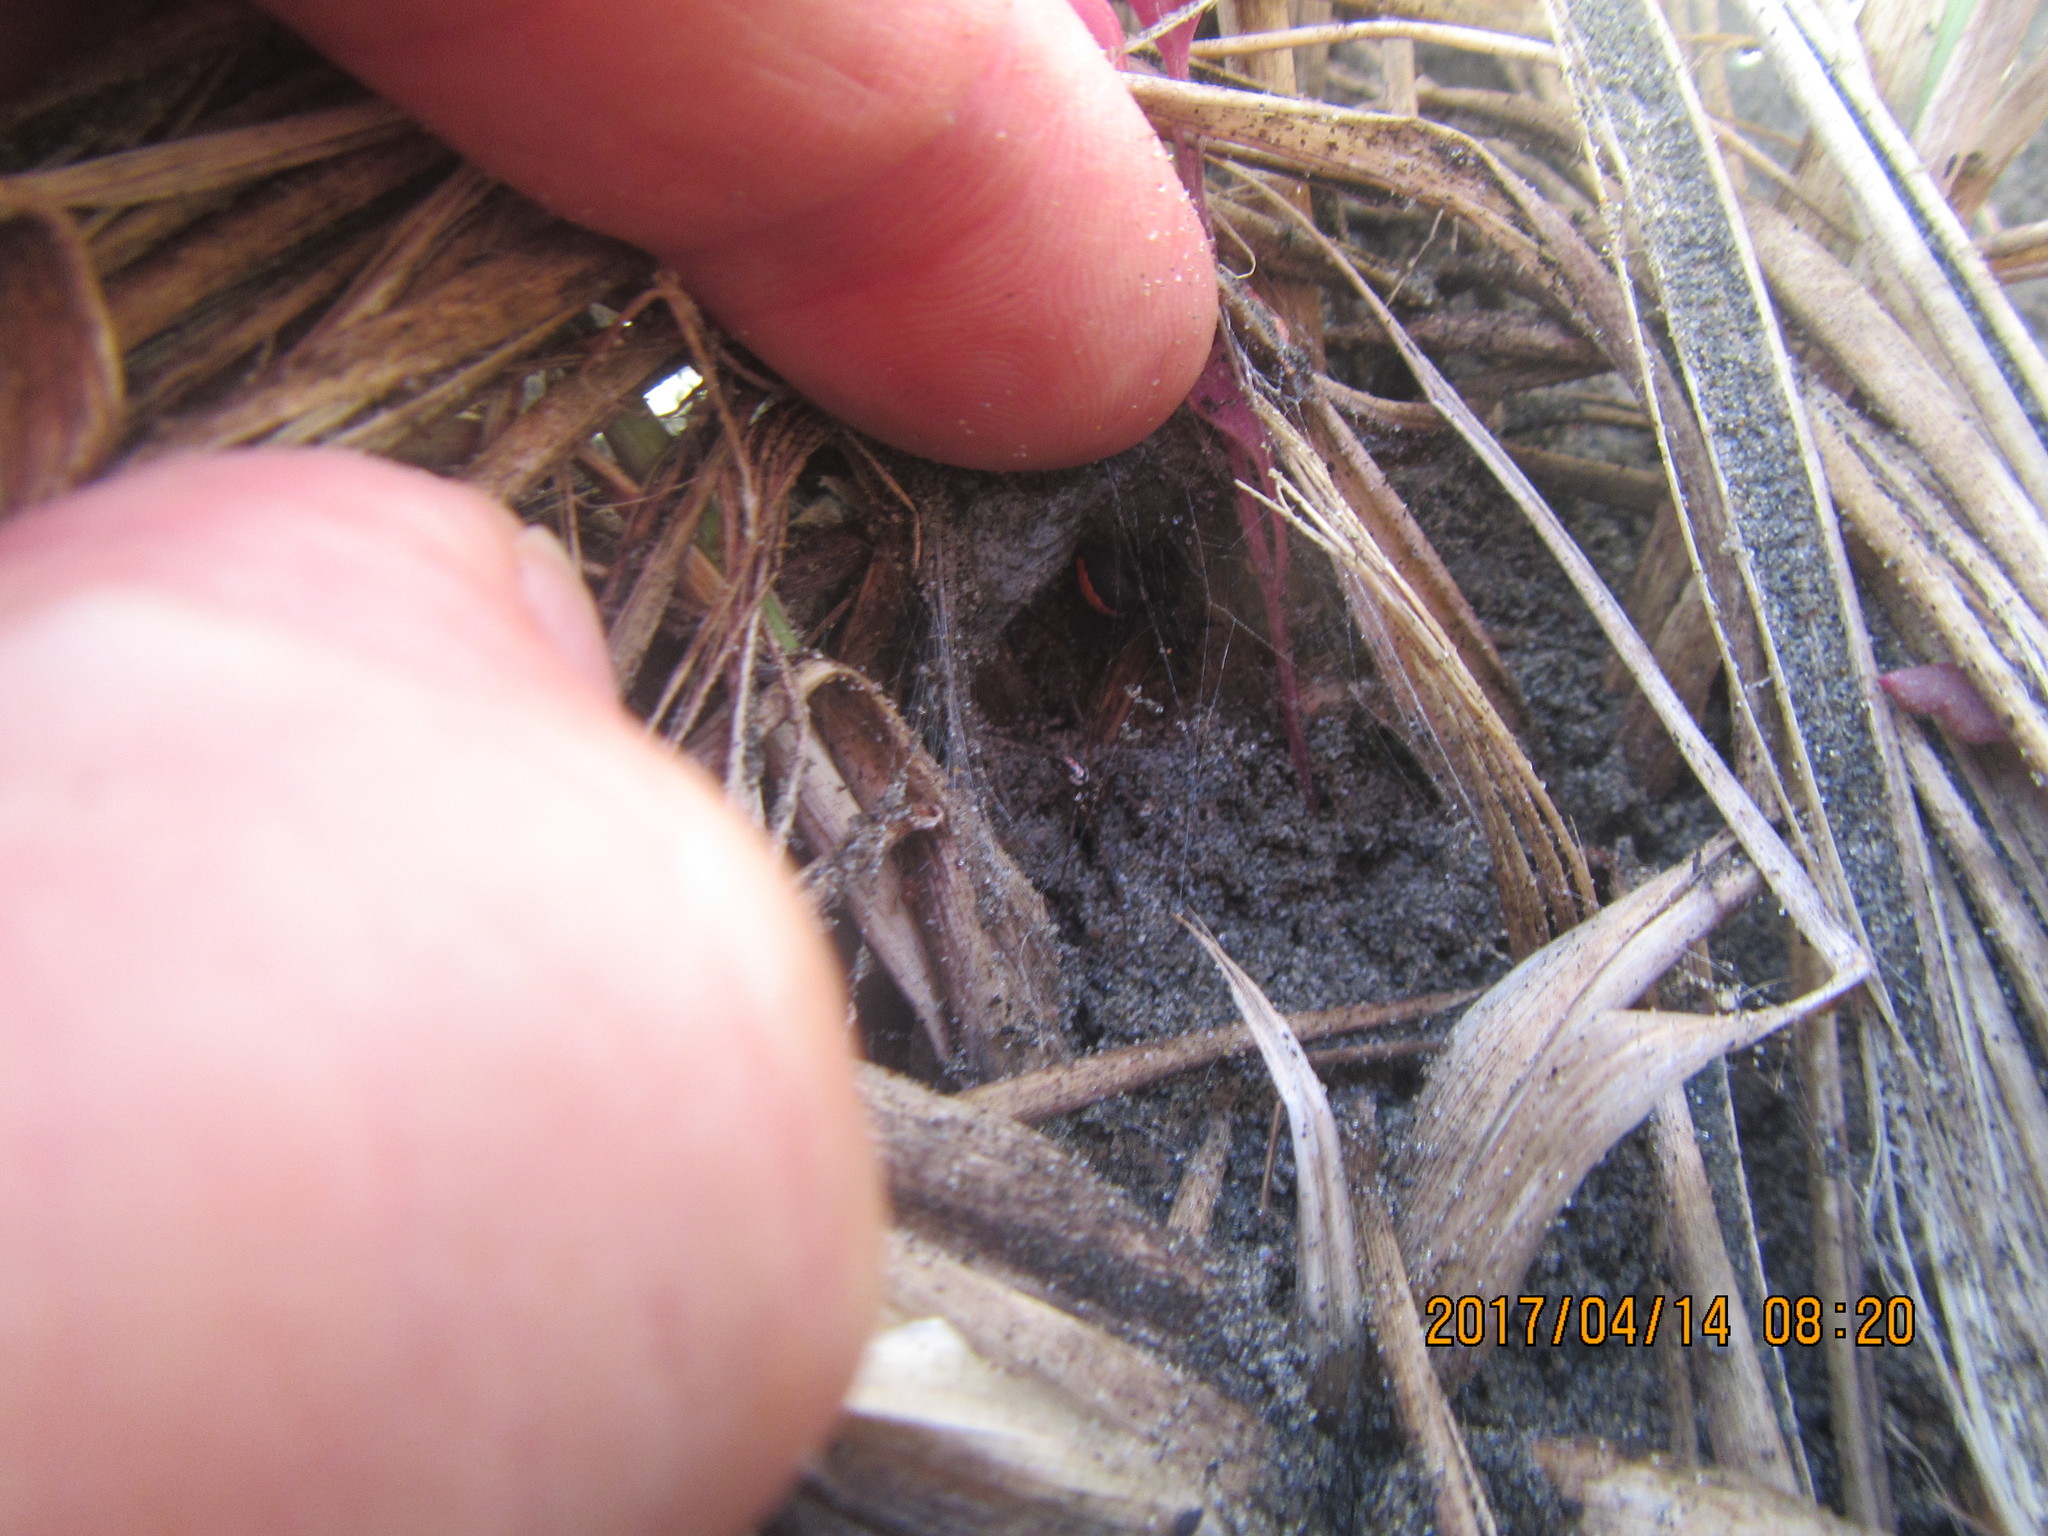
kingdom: Animalia
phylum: Arthropoda
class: Arachnida
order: Araneae
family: Theridiidae
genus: Latrodectus
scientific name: Latrodectus katipo
